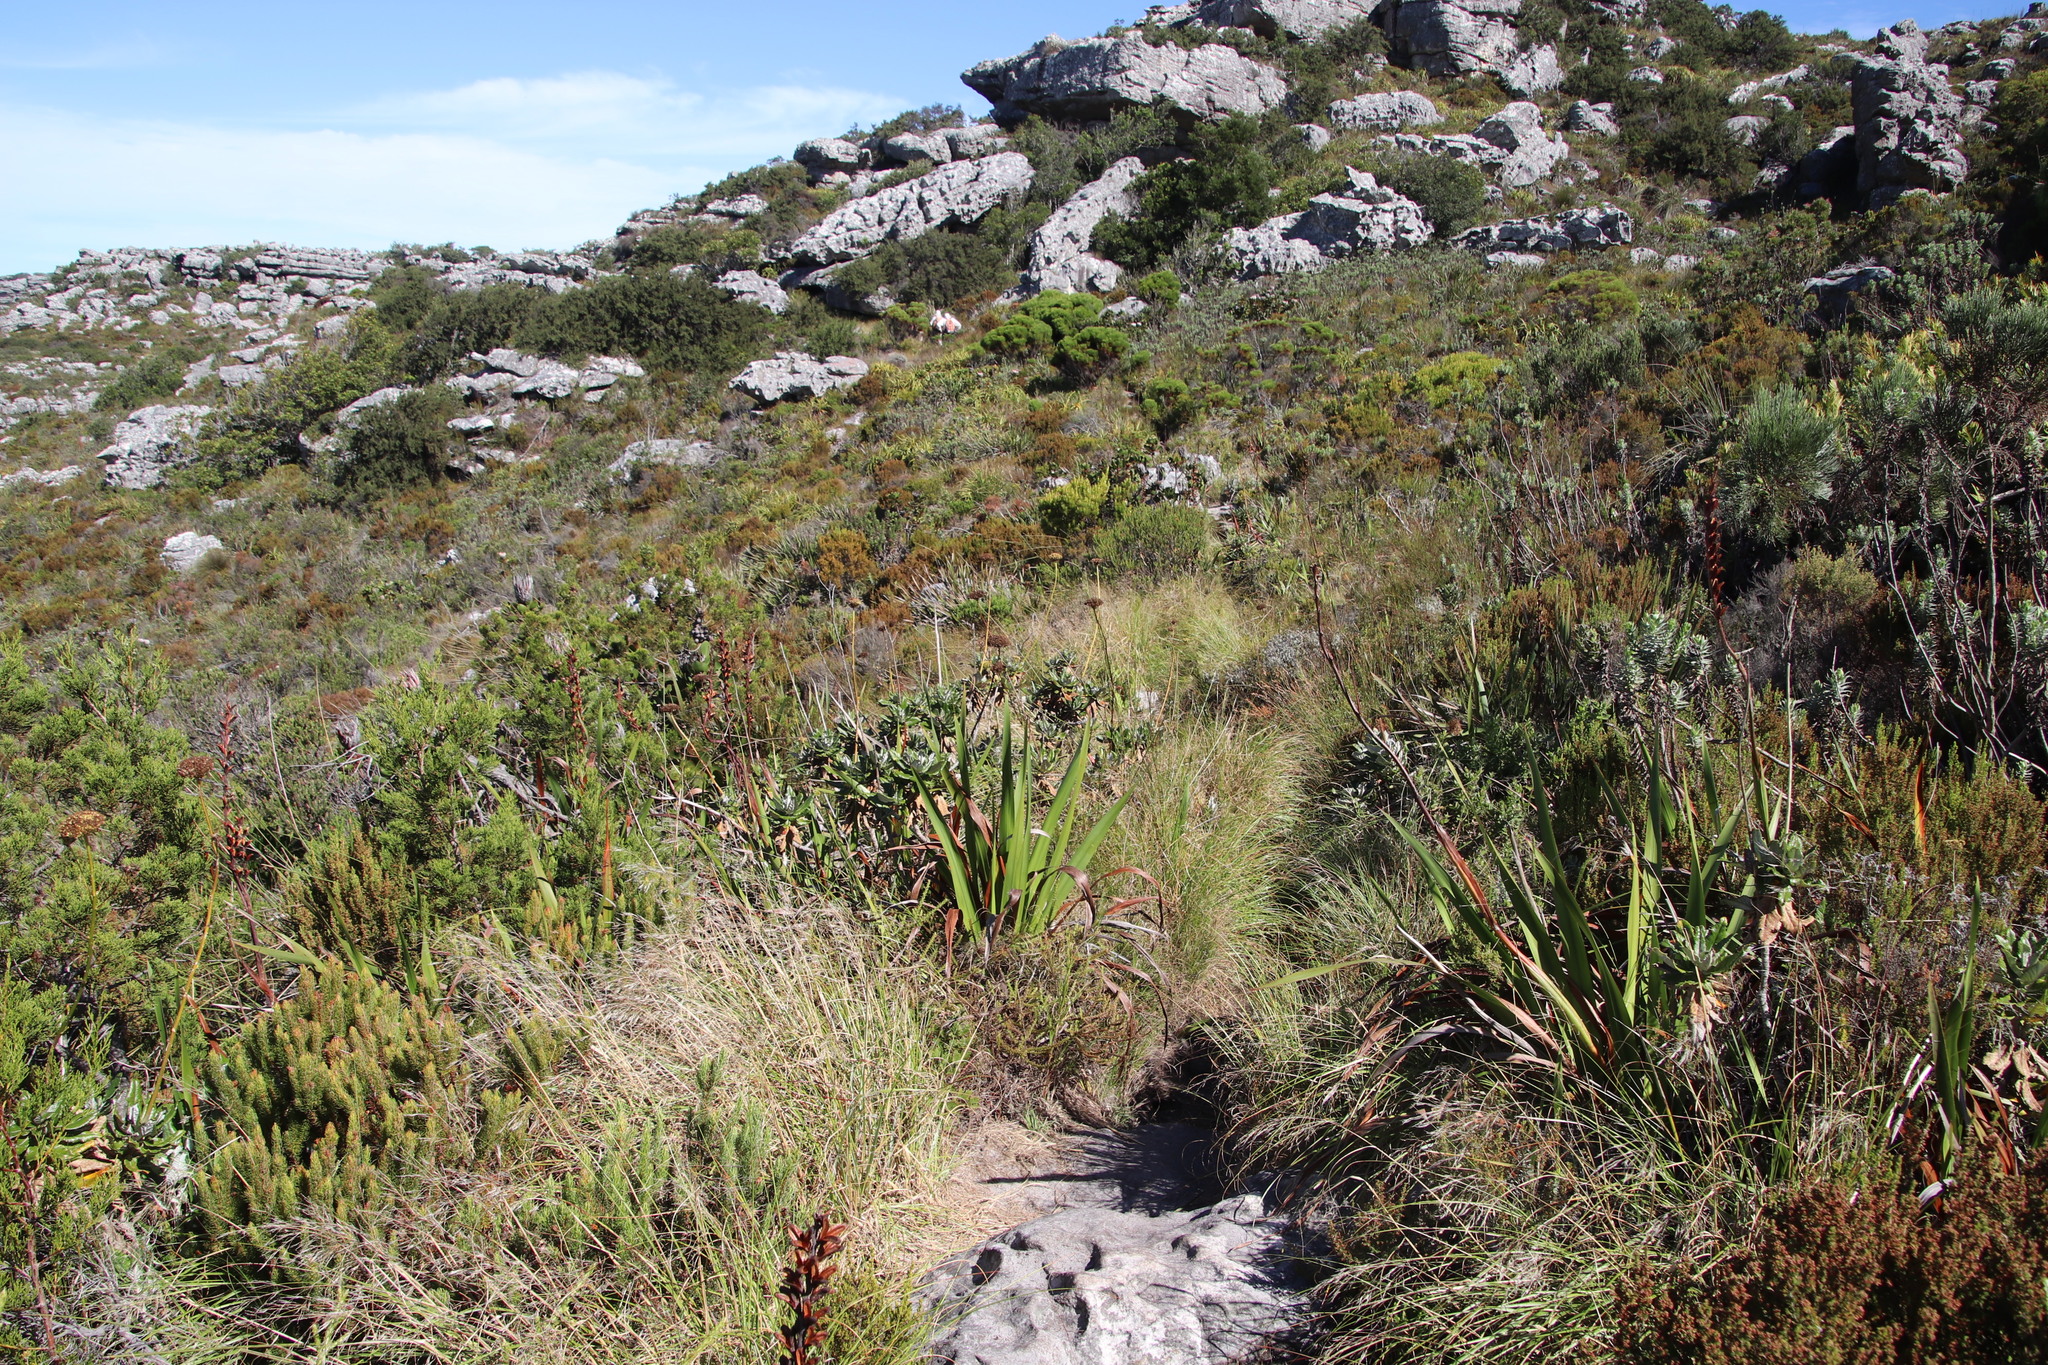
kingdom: Plantae
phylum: Tracheophyta
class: Magnoliopsida
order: Apiales
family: Apiaceae
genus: Hermas
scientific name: Hermas villosa
